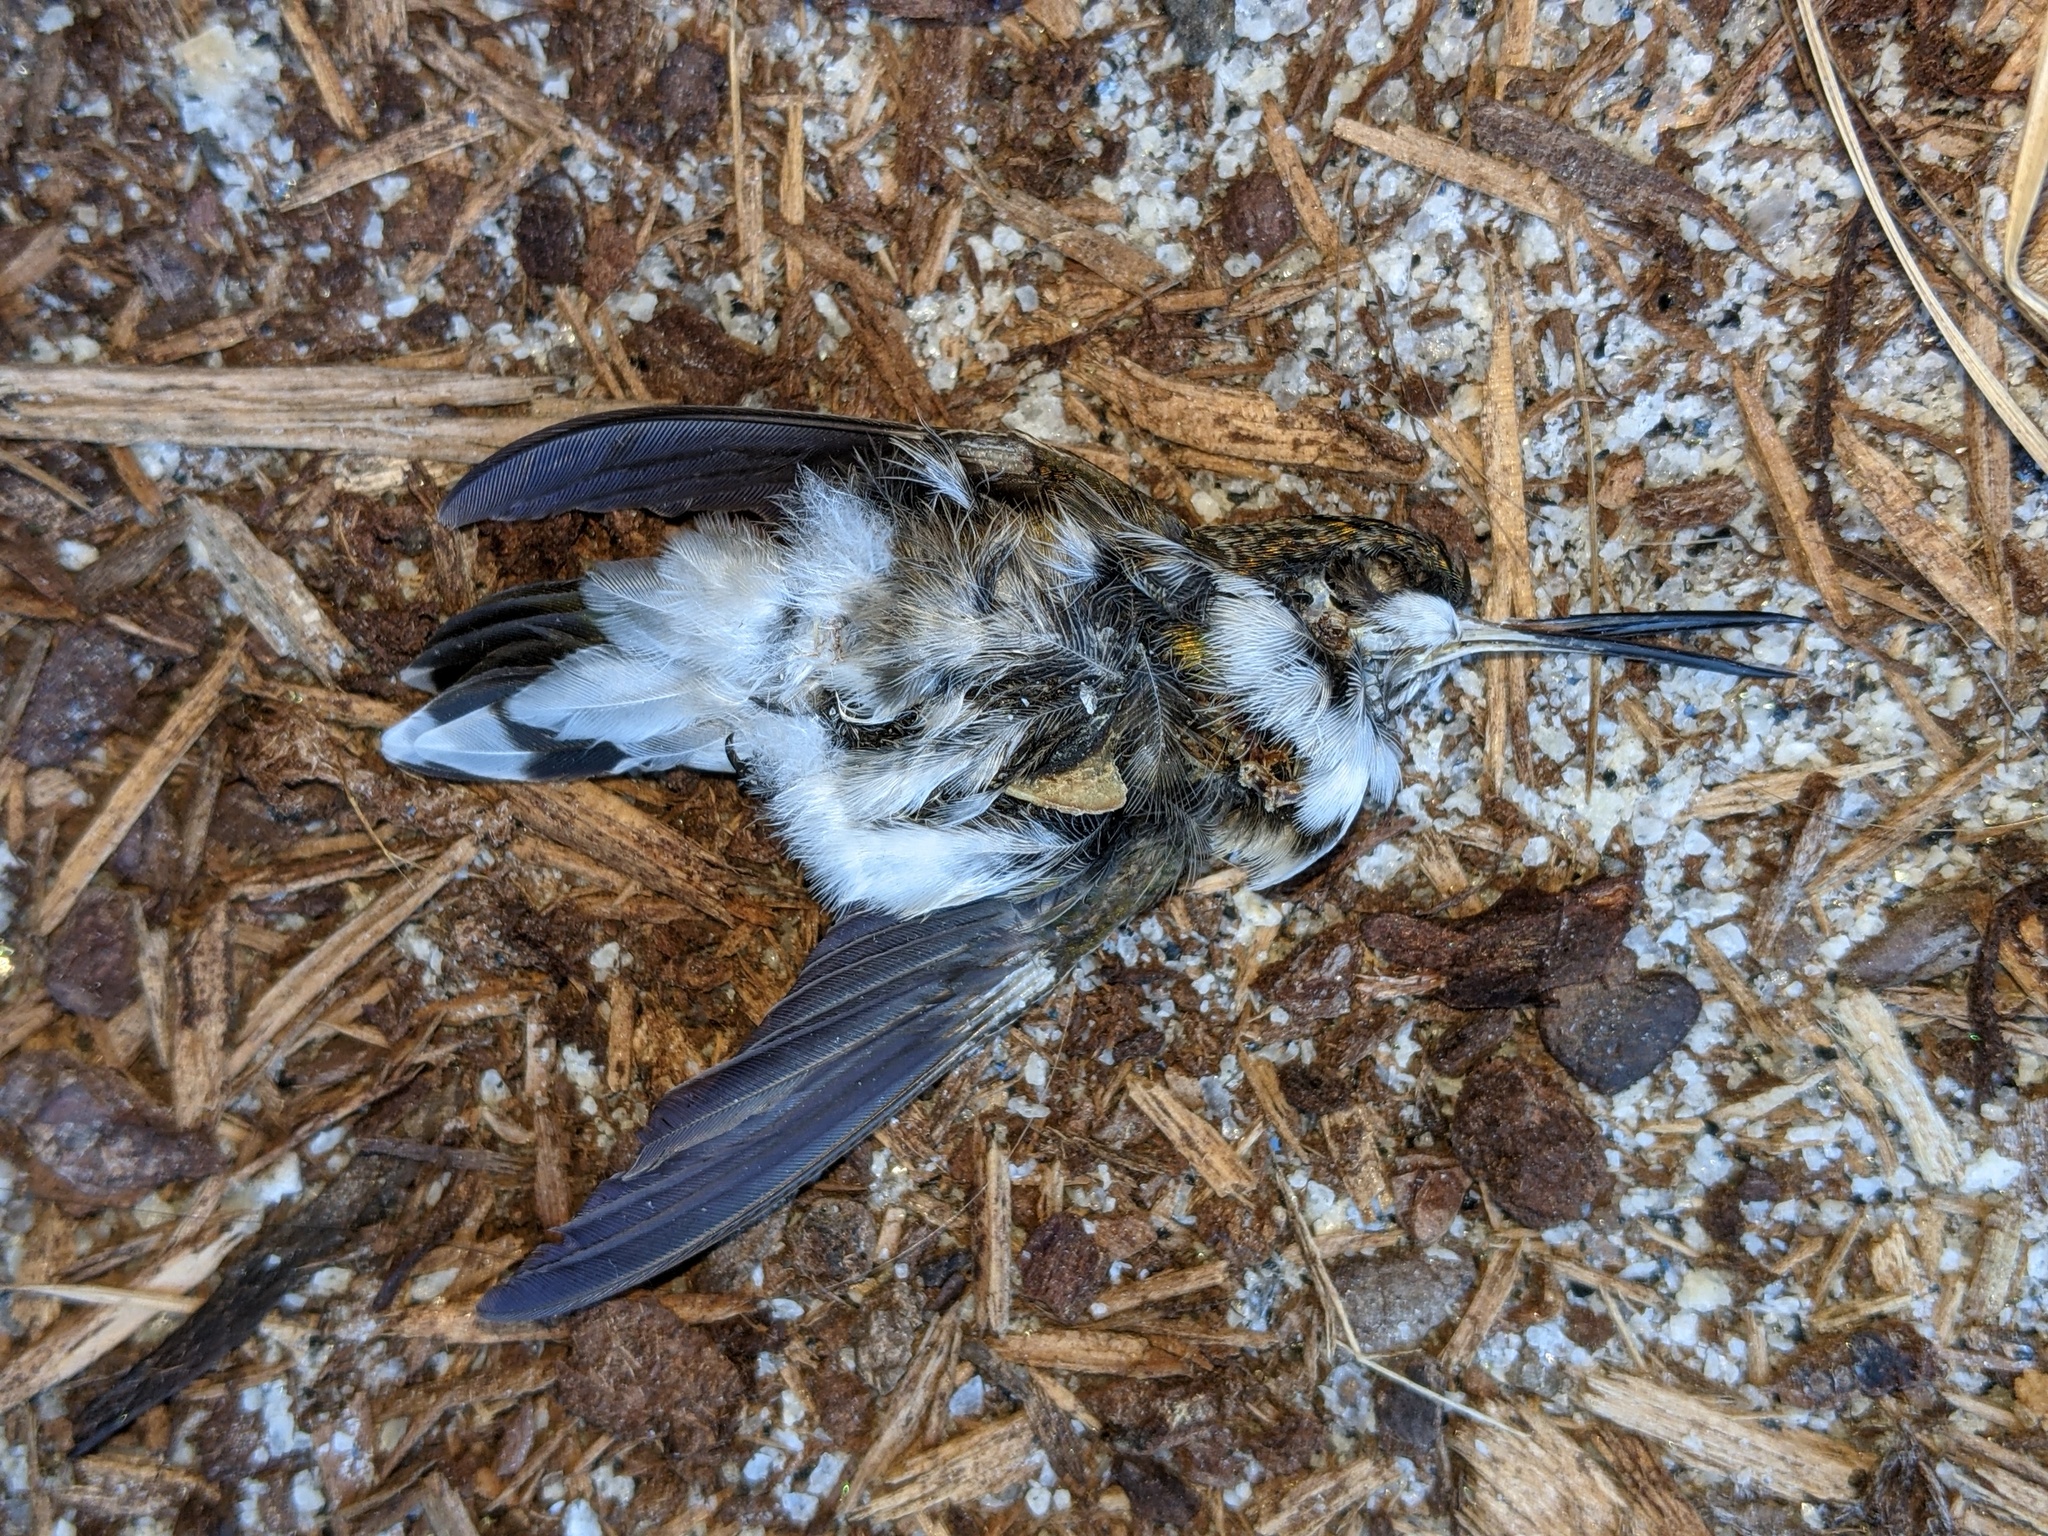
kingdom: Animalia
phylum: Chordata
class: Aves
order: Apodiformes
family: Trochilidae
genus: Archilochus
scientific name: Archilochus colubris
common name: Ruby-throated hummingbird
